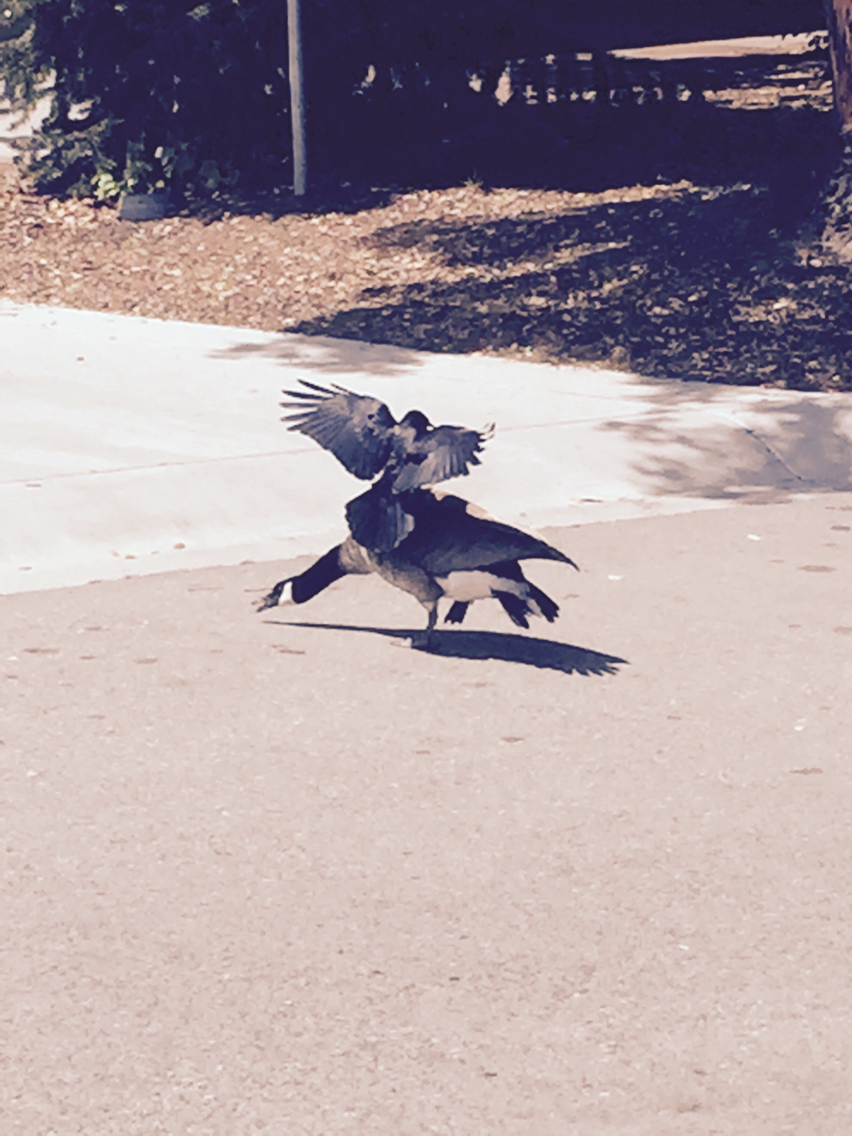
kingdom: Animalia
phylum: Chordata
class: Aves
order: Anseriformes
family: Anatidae
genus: Branta
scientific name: Branta canadensis
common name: Canada goose
